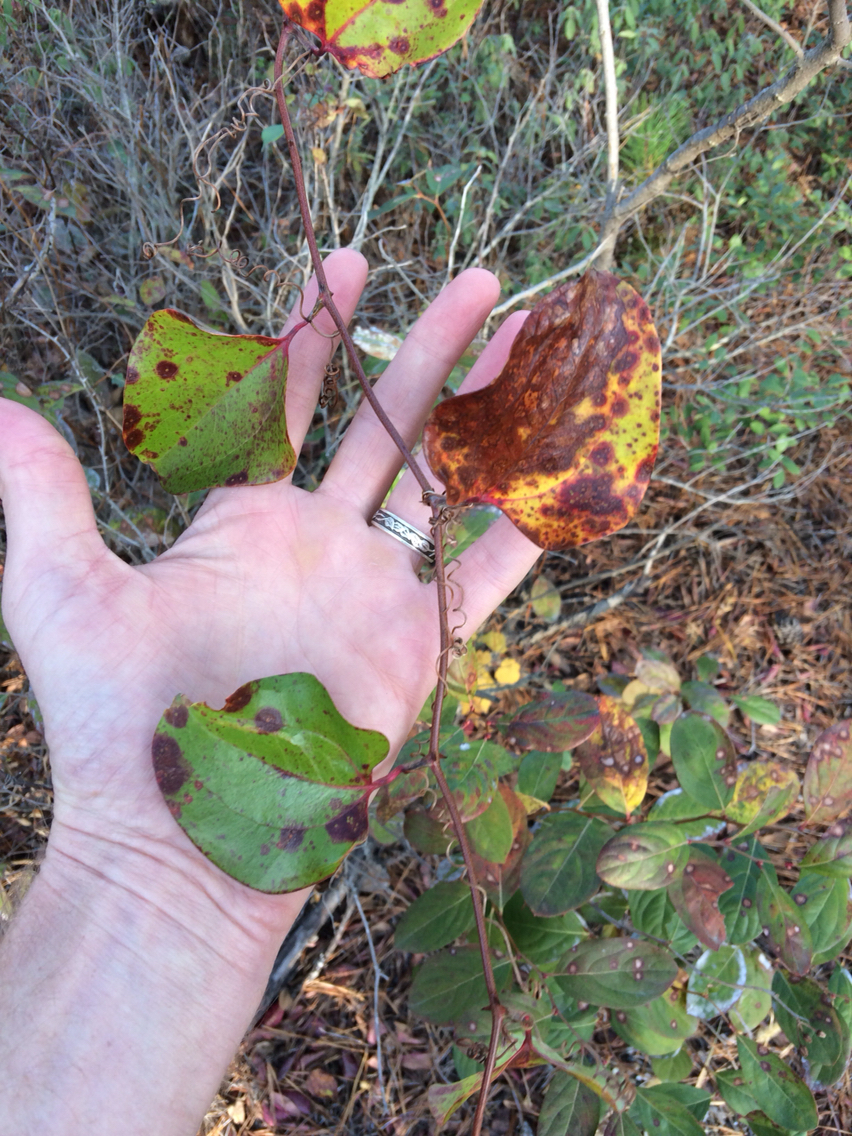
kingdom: Plantae
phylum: Tracheophyta
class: Liliopsida
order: Liliales
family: Smilacaceae
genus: Smilax
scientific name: Smilax rotundifolia
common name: Bullbriar
